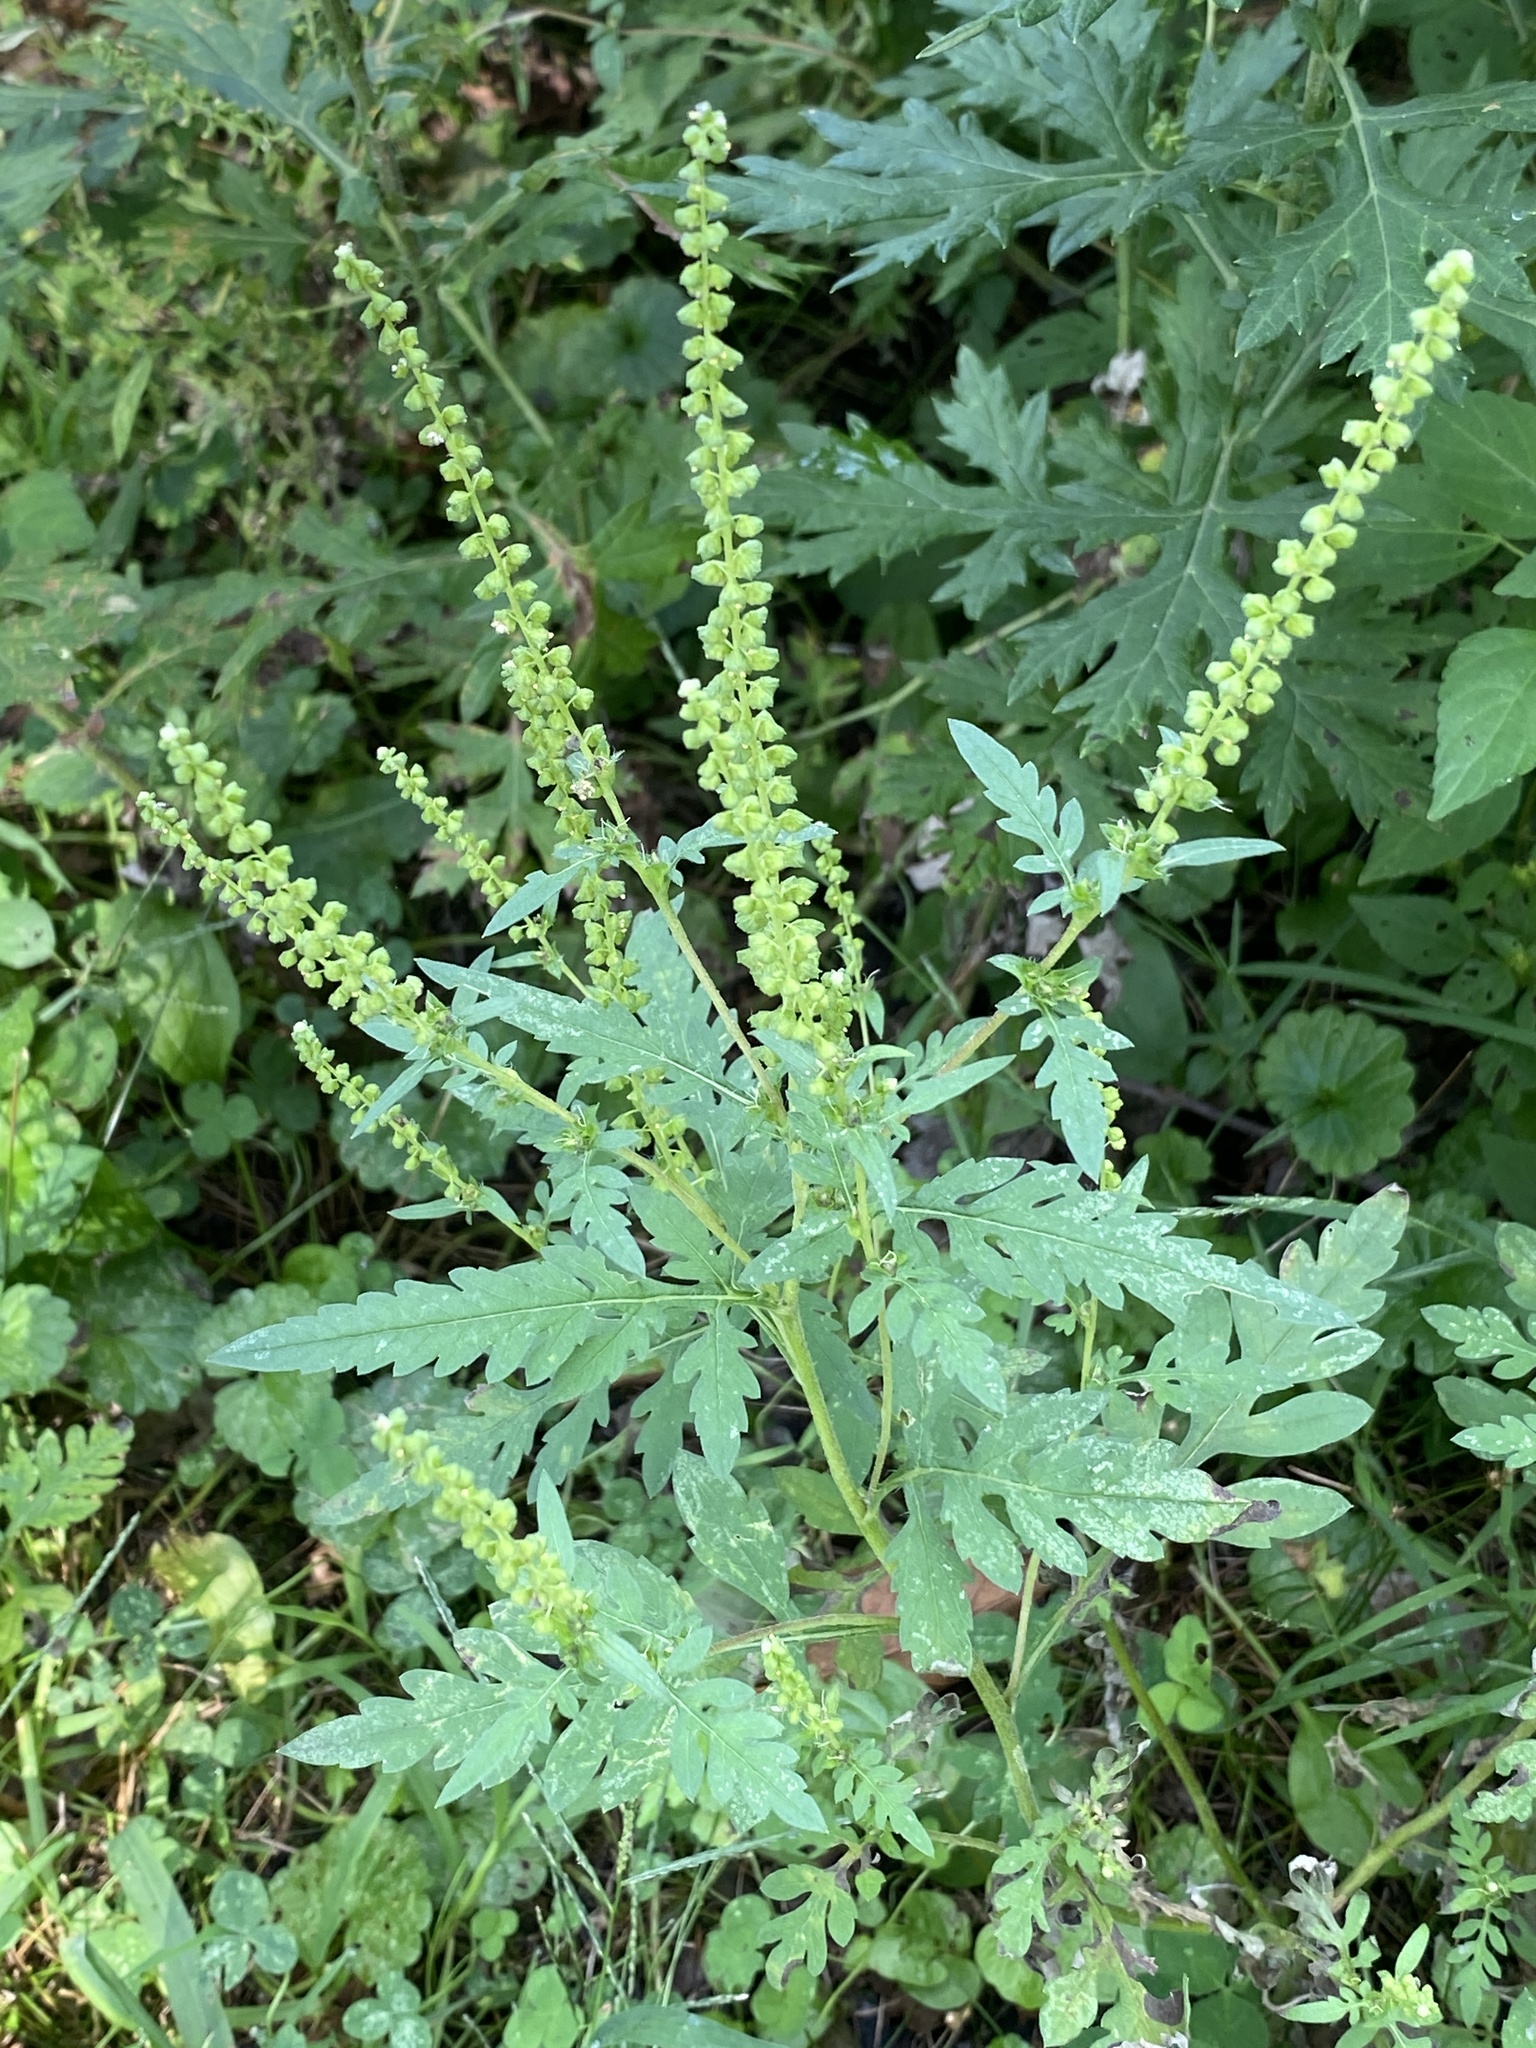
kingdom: Plantae
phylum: Tracheophyta
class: Magnoliopsida
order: Asterales
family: Asteraceae
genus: Ambrosia
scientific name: Ambrosia artemisiifolia
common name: Annual ragweed
